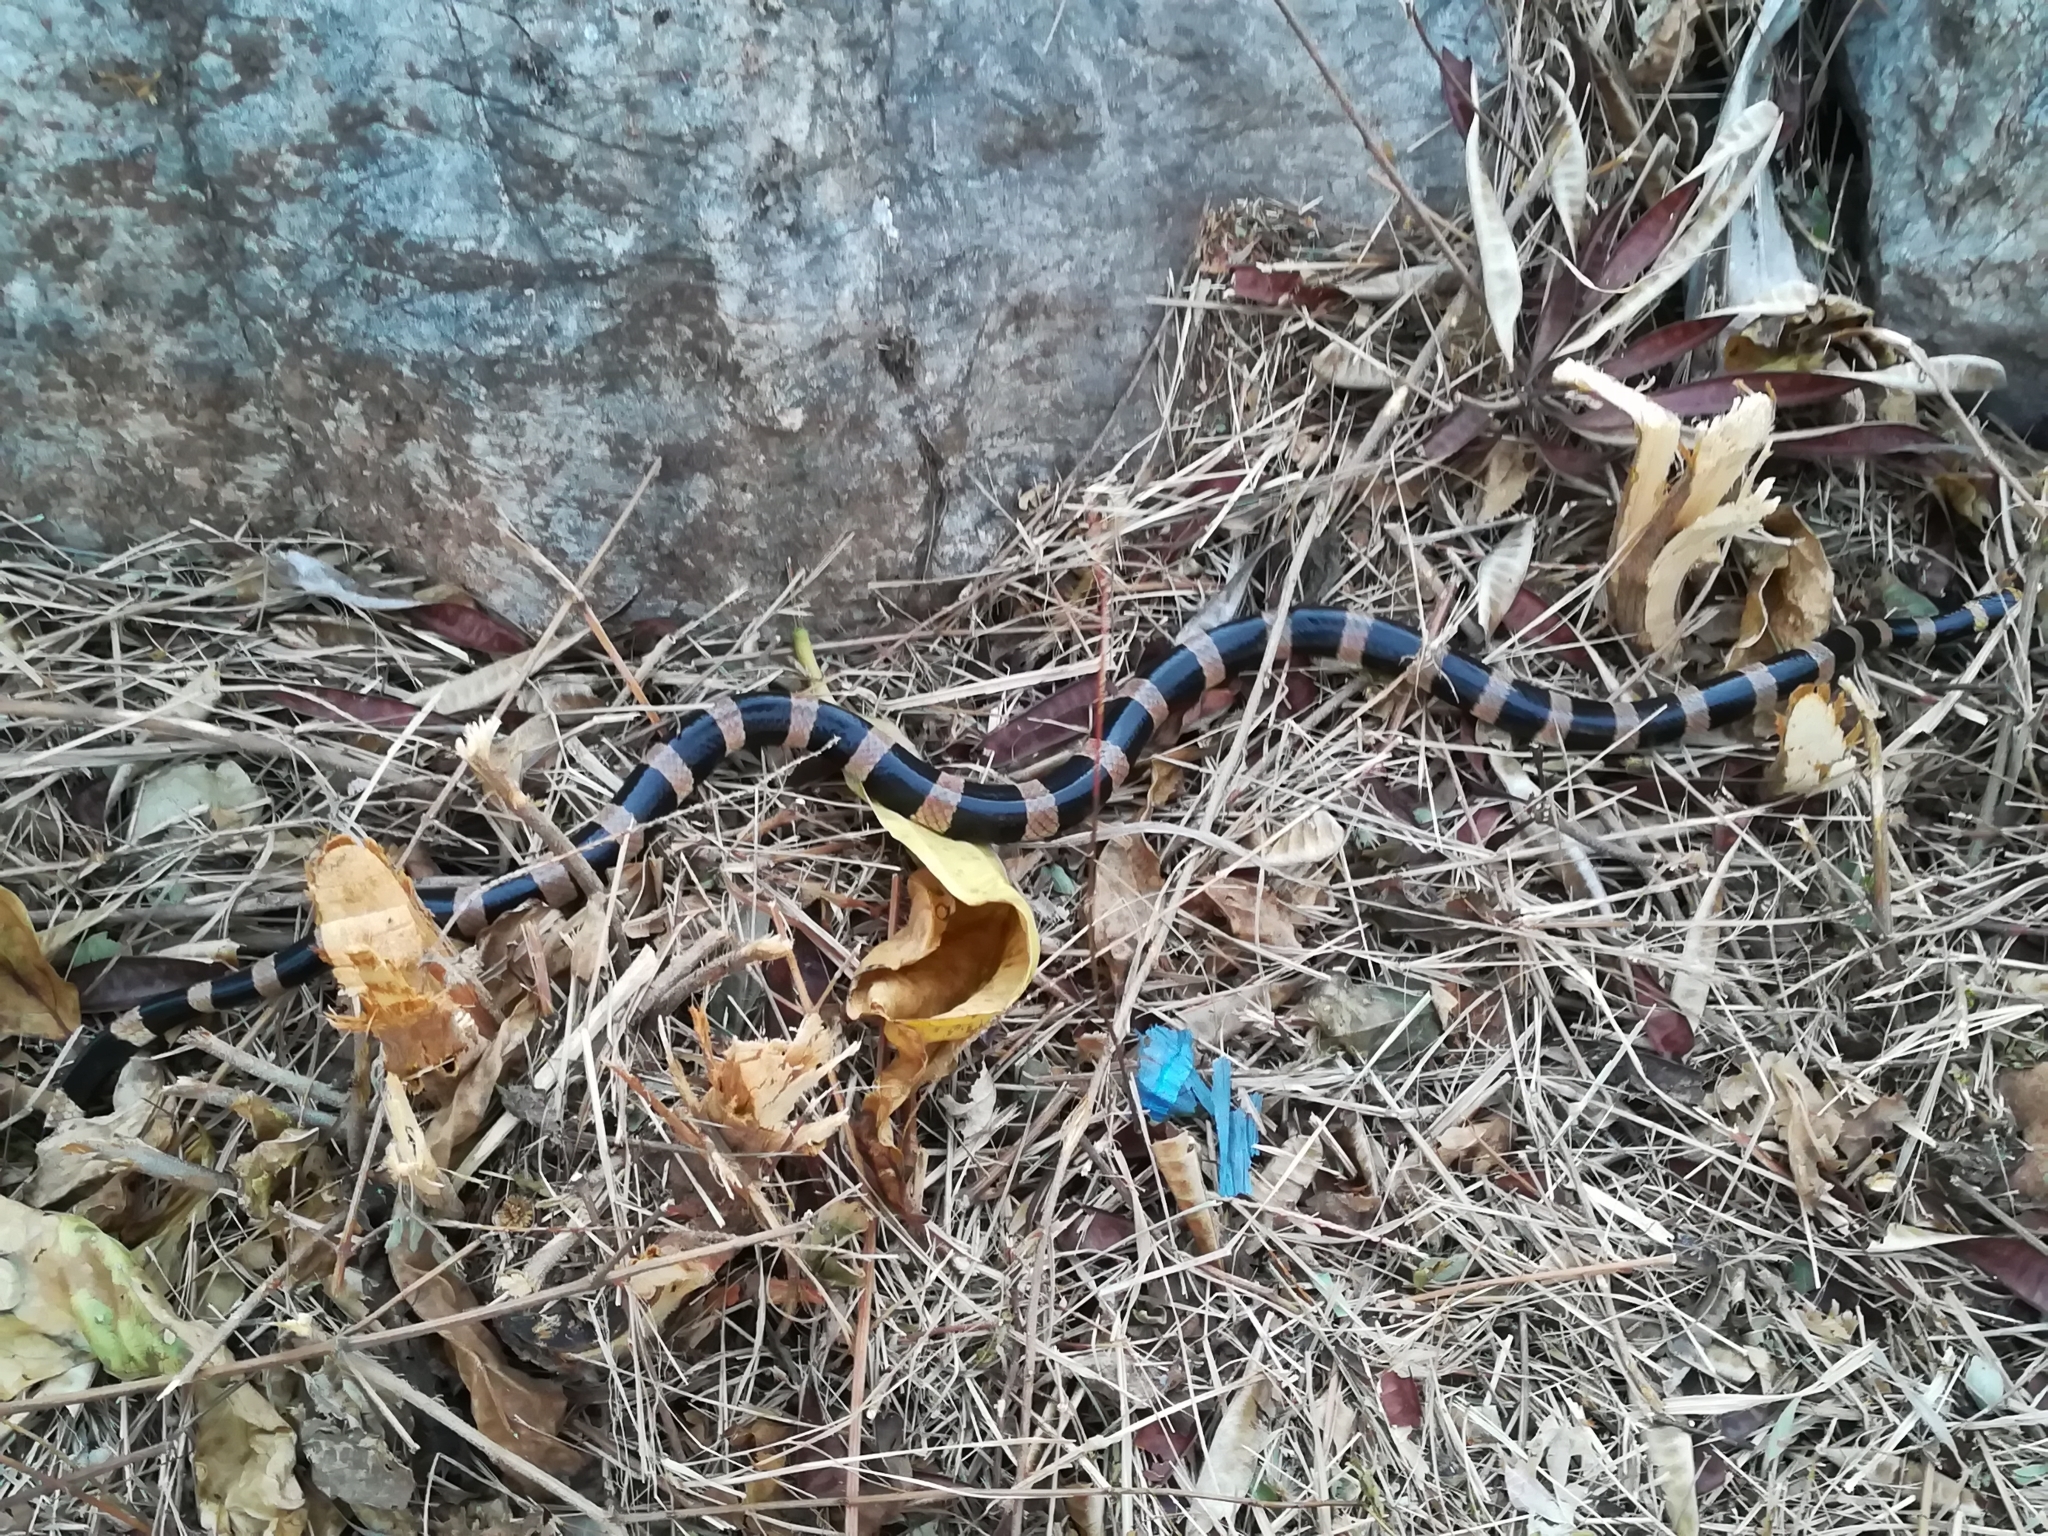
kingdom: Animalia
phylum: Chordata
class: Squamata
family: Elapidae
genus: Laticauda
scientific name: Laticauda saintgironsi
